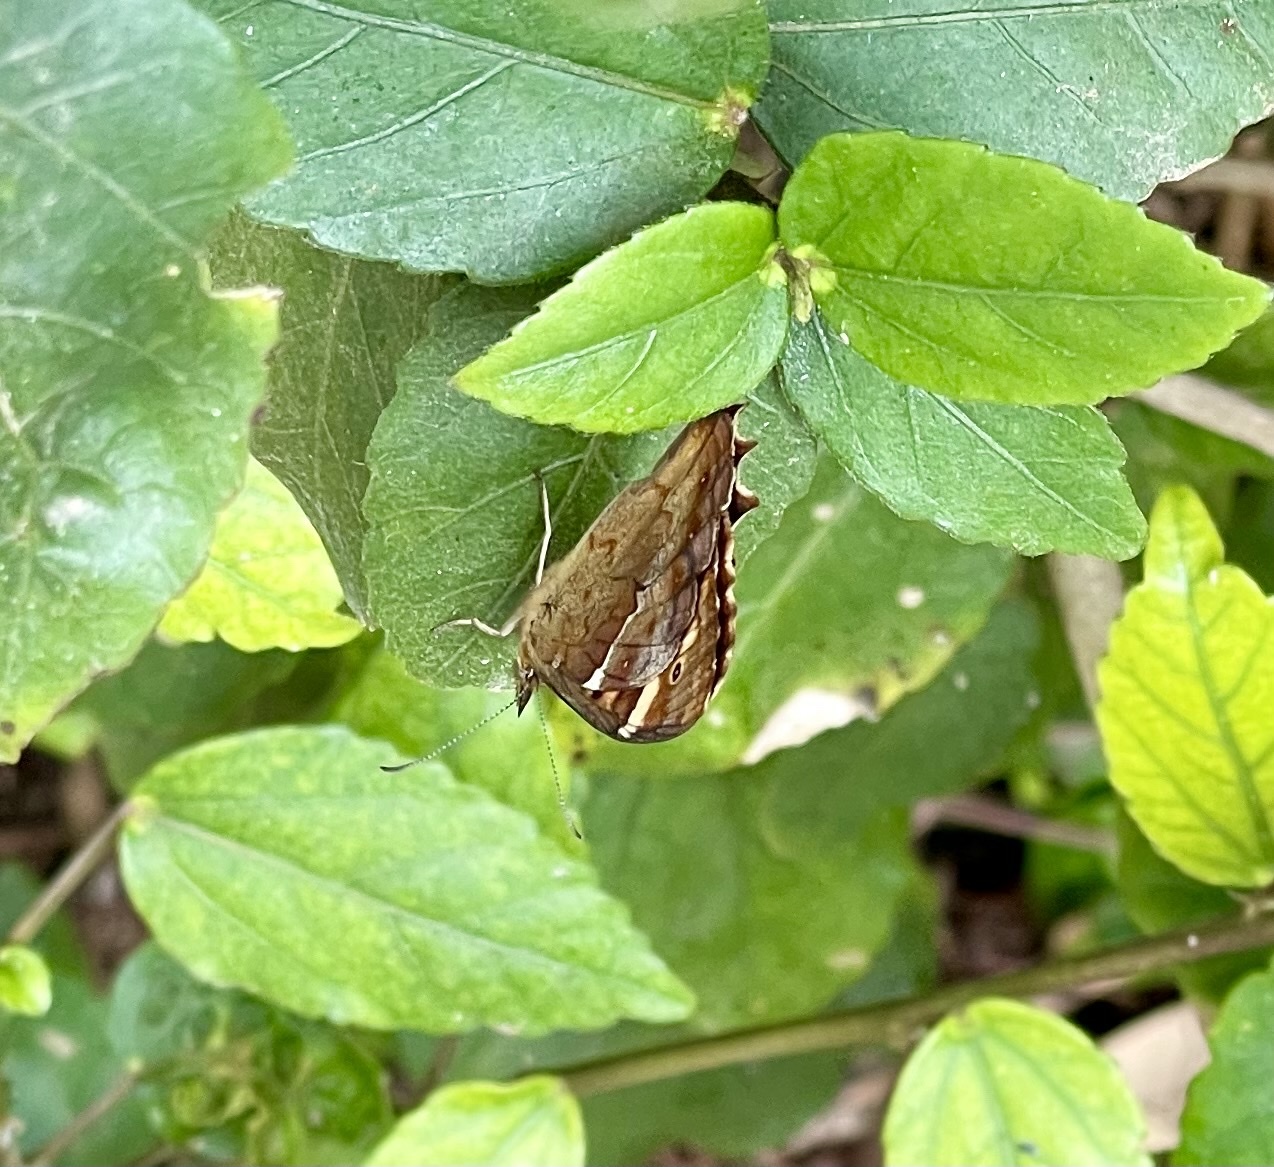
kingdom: Animalia
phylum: Arthropoda
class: Insecta
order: Lepidoptera
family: Nymphalidae
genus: Pararge
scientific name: Pararge aegeria
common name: Speckled wood
